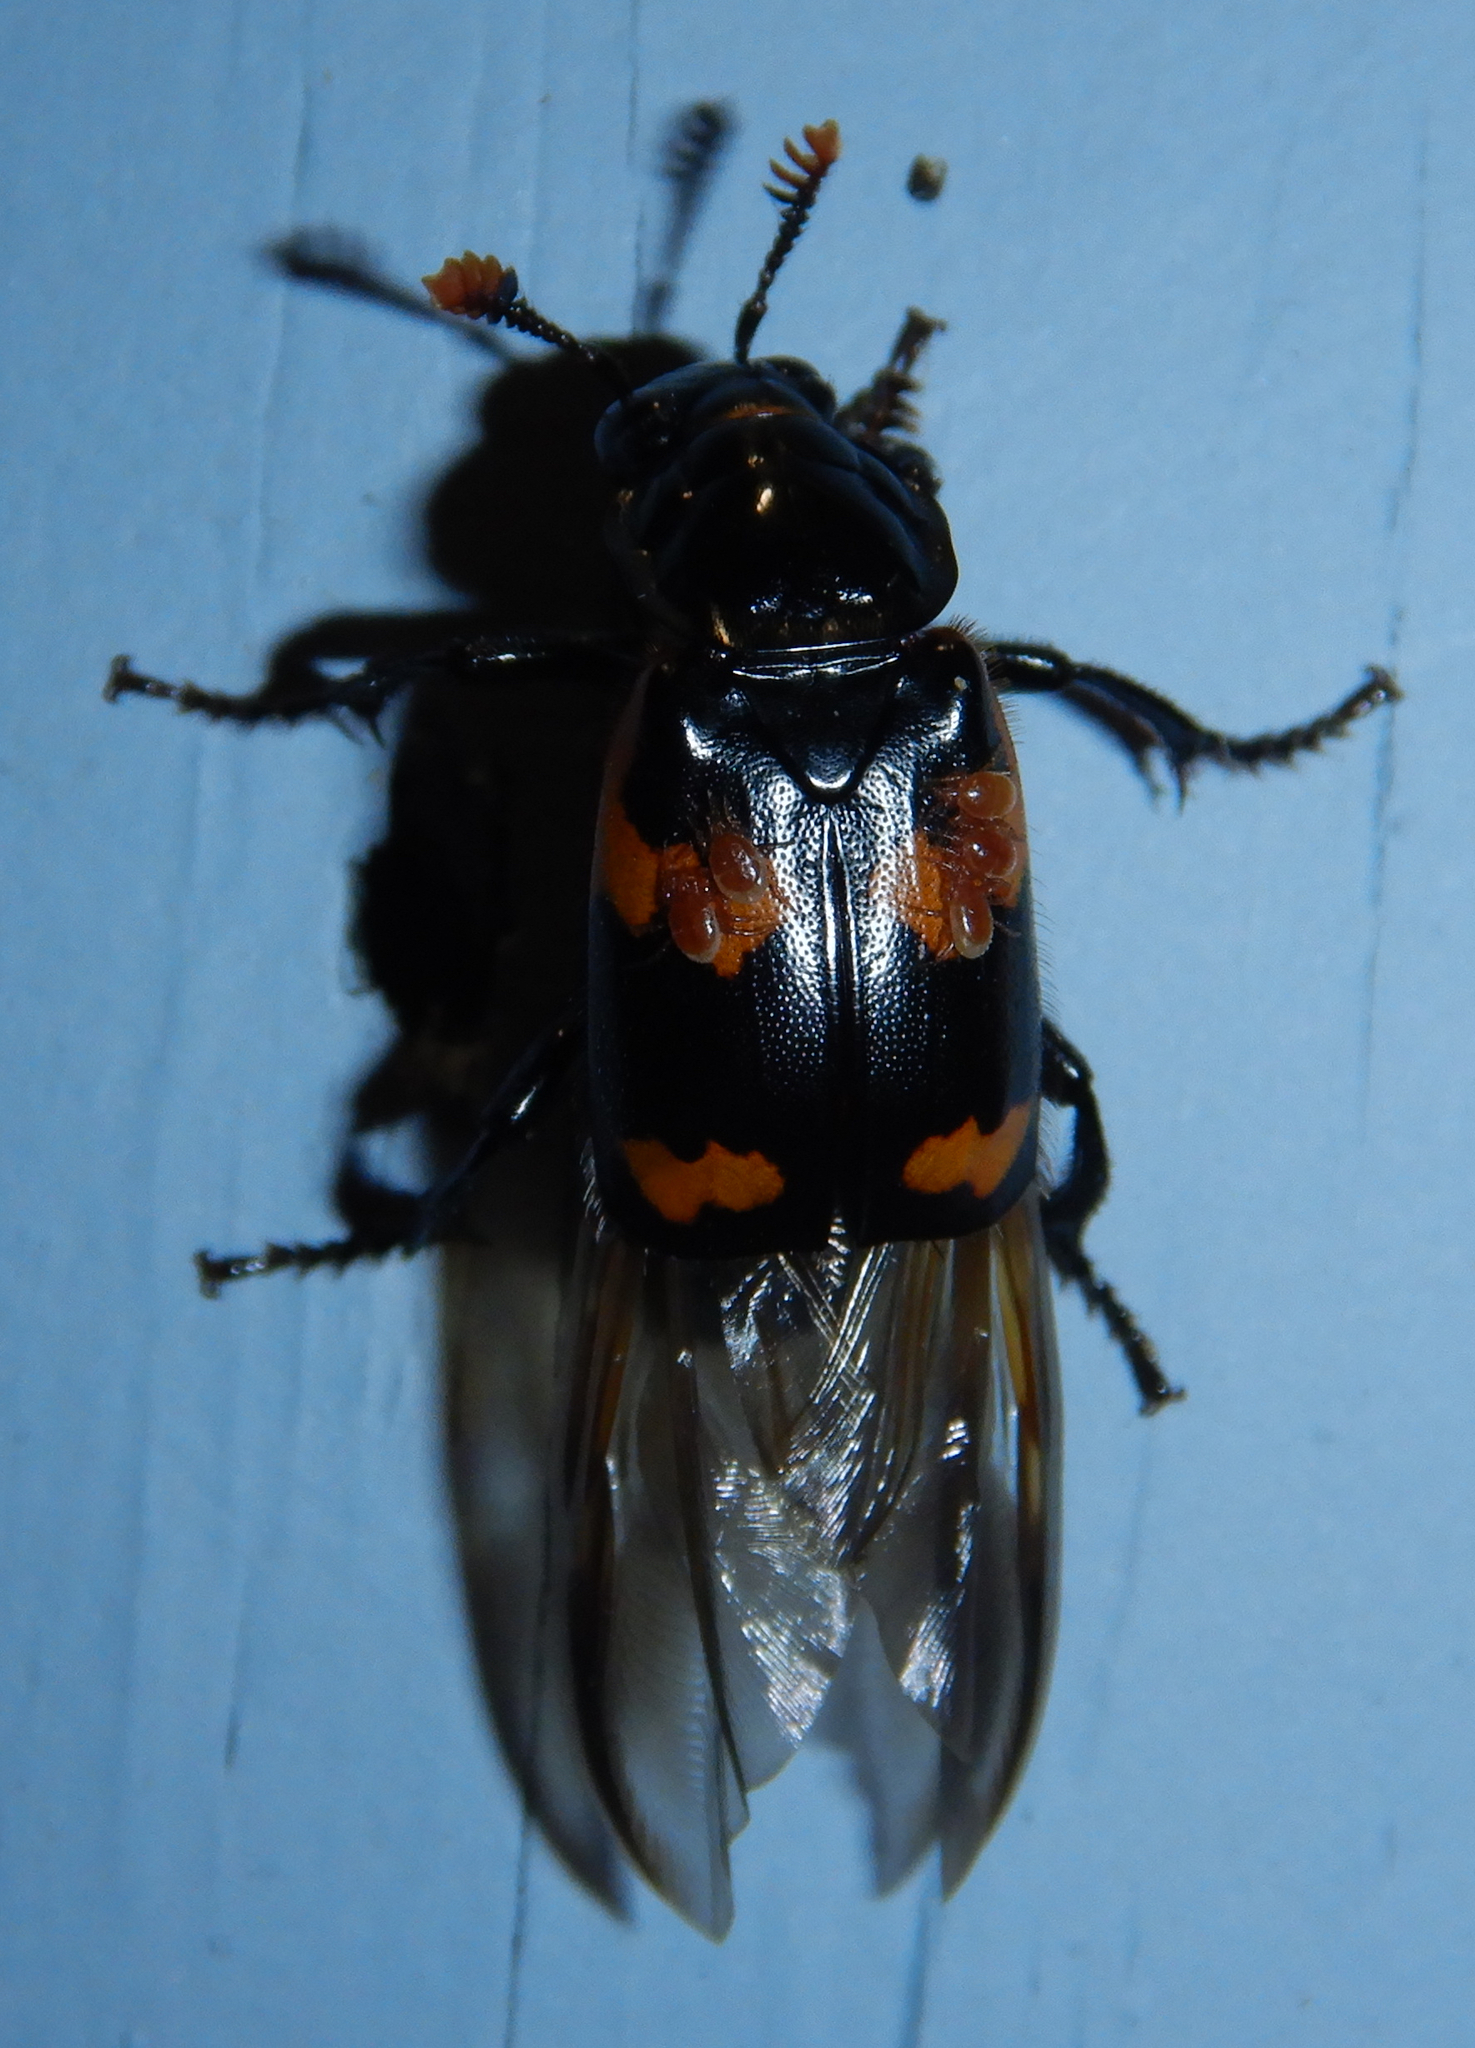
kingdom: Animalia
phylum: Arthropoda
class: Insecta
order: Coleoptera
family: Staphylinidae
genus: Nicrophorus
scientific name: Nicrophorus sayi
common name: Say's burying beetle
